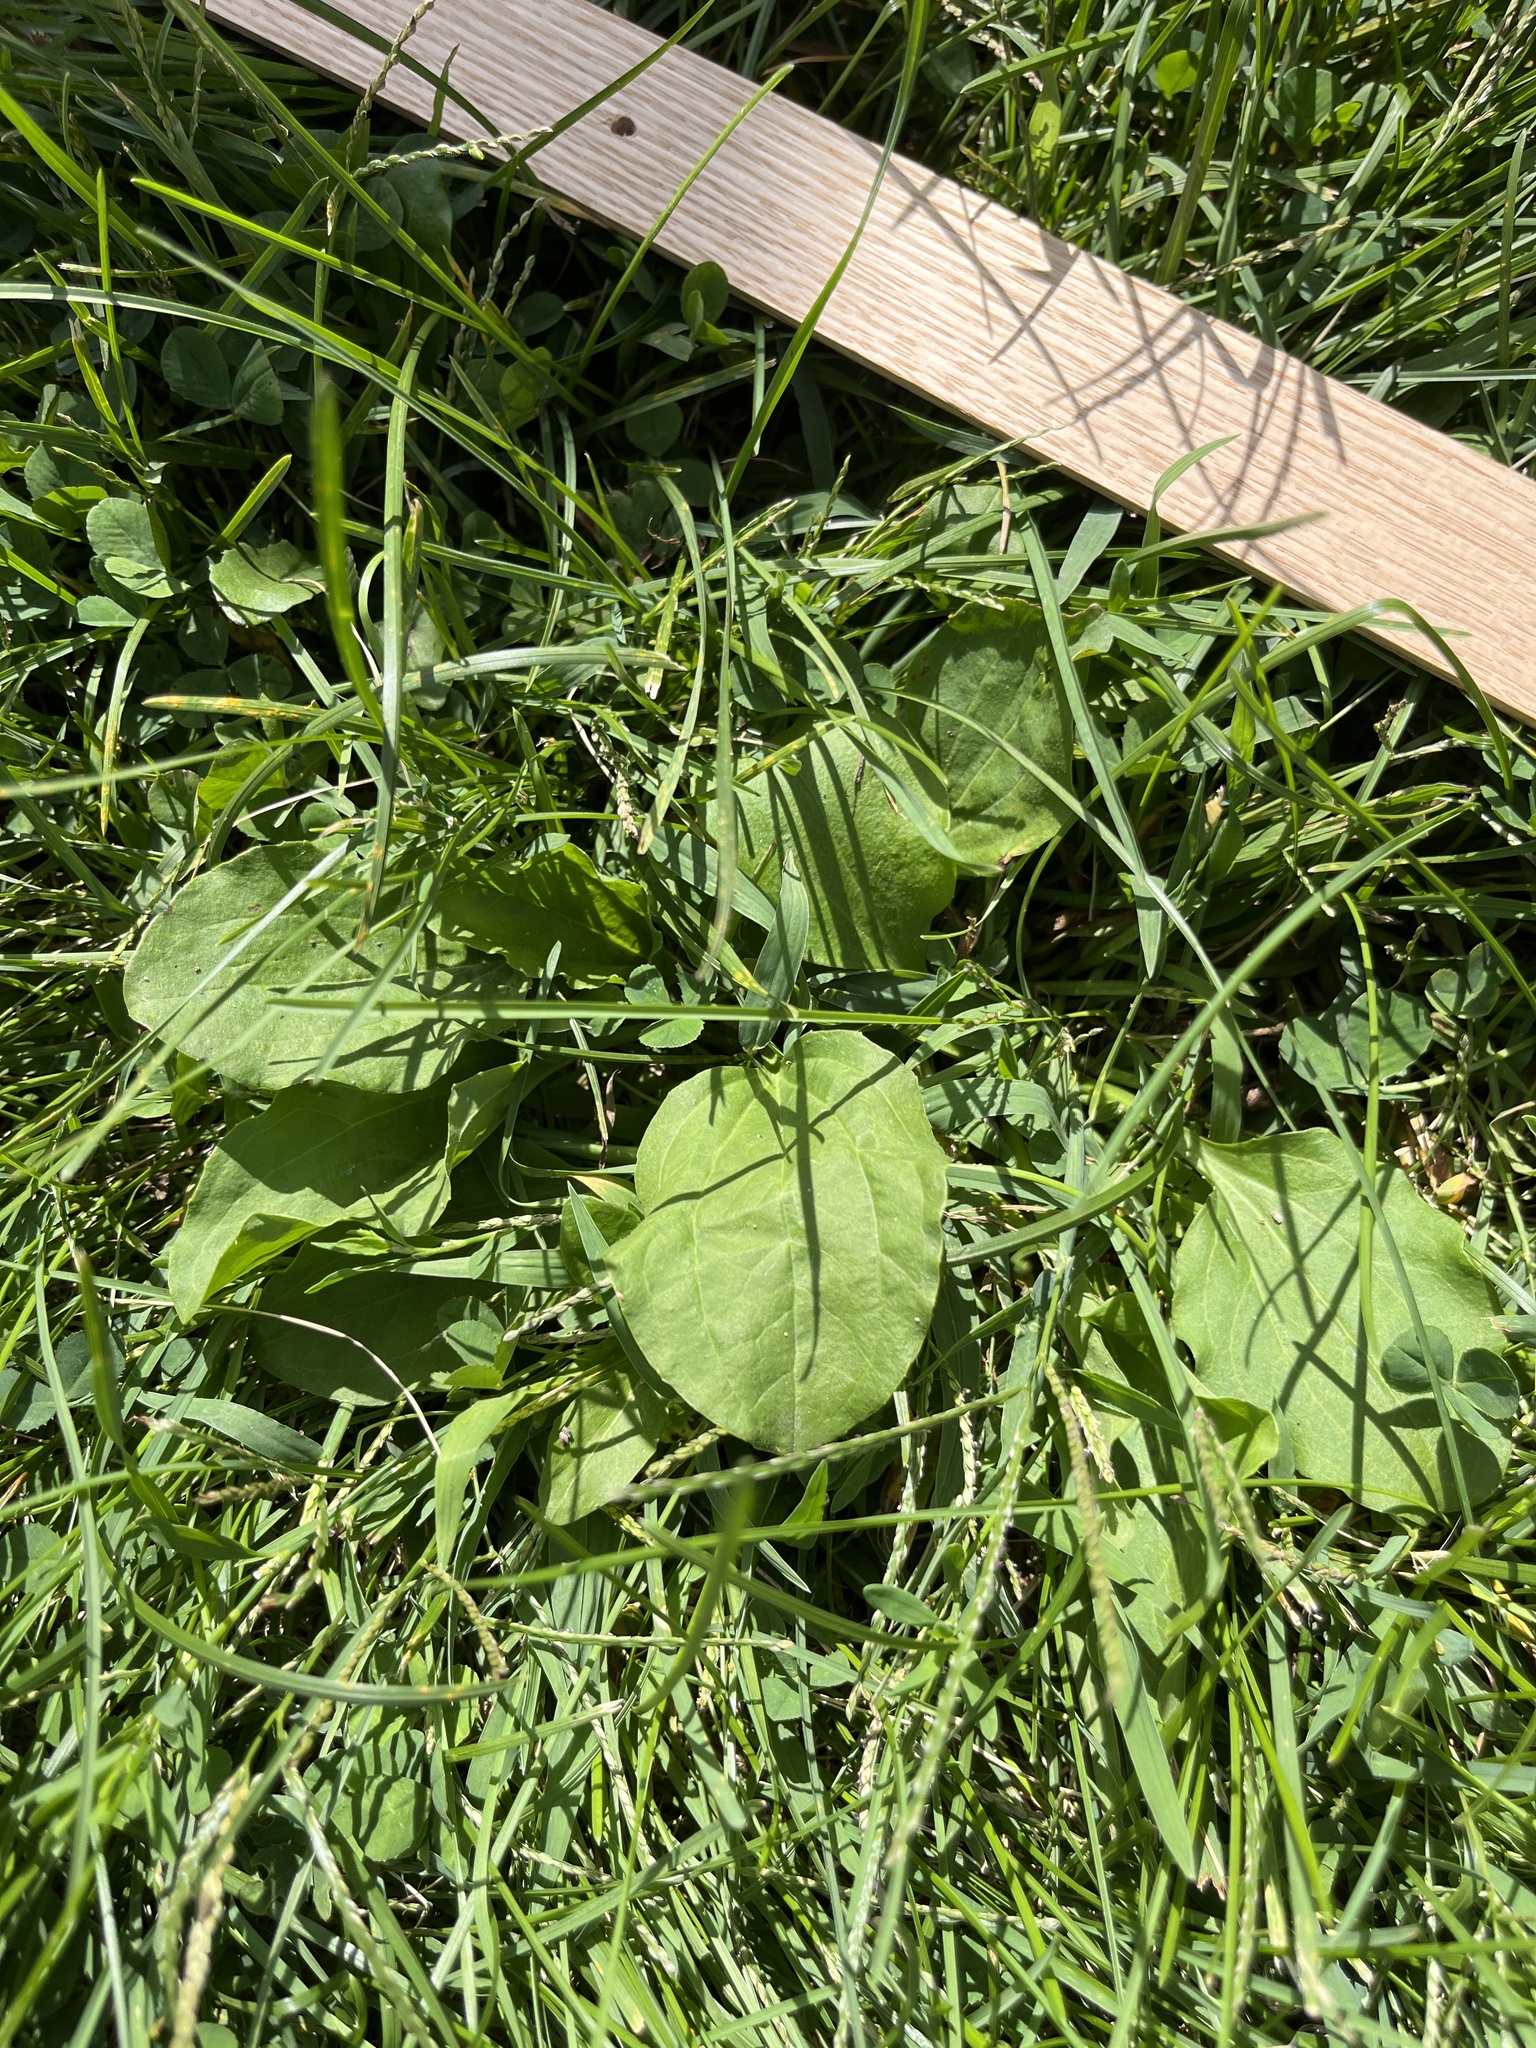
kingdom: Plantae
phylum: Tracheophyta
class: Magnoliopsida
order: Lamiales
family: Plantaginaceae
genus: Plantago
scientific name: Plantago major
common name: Common plantain
